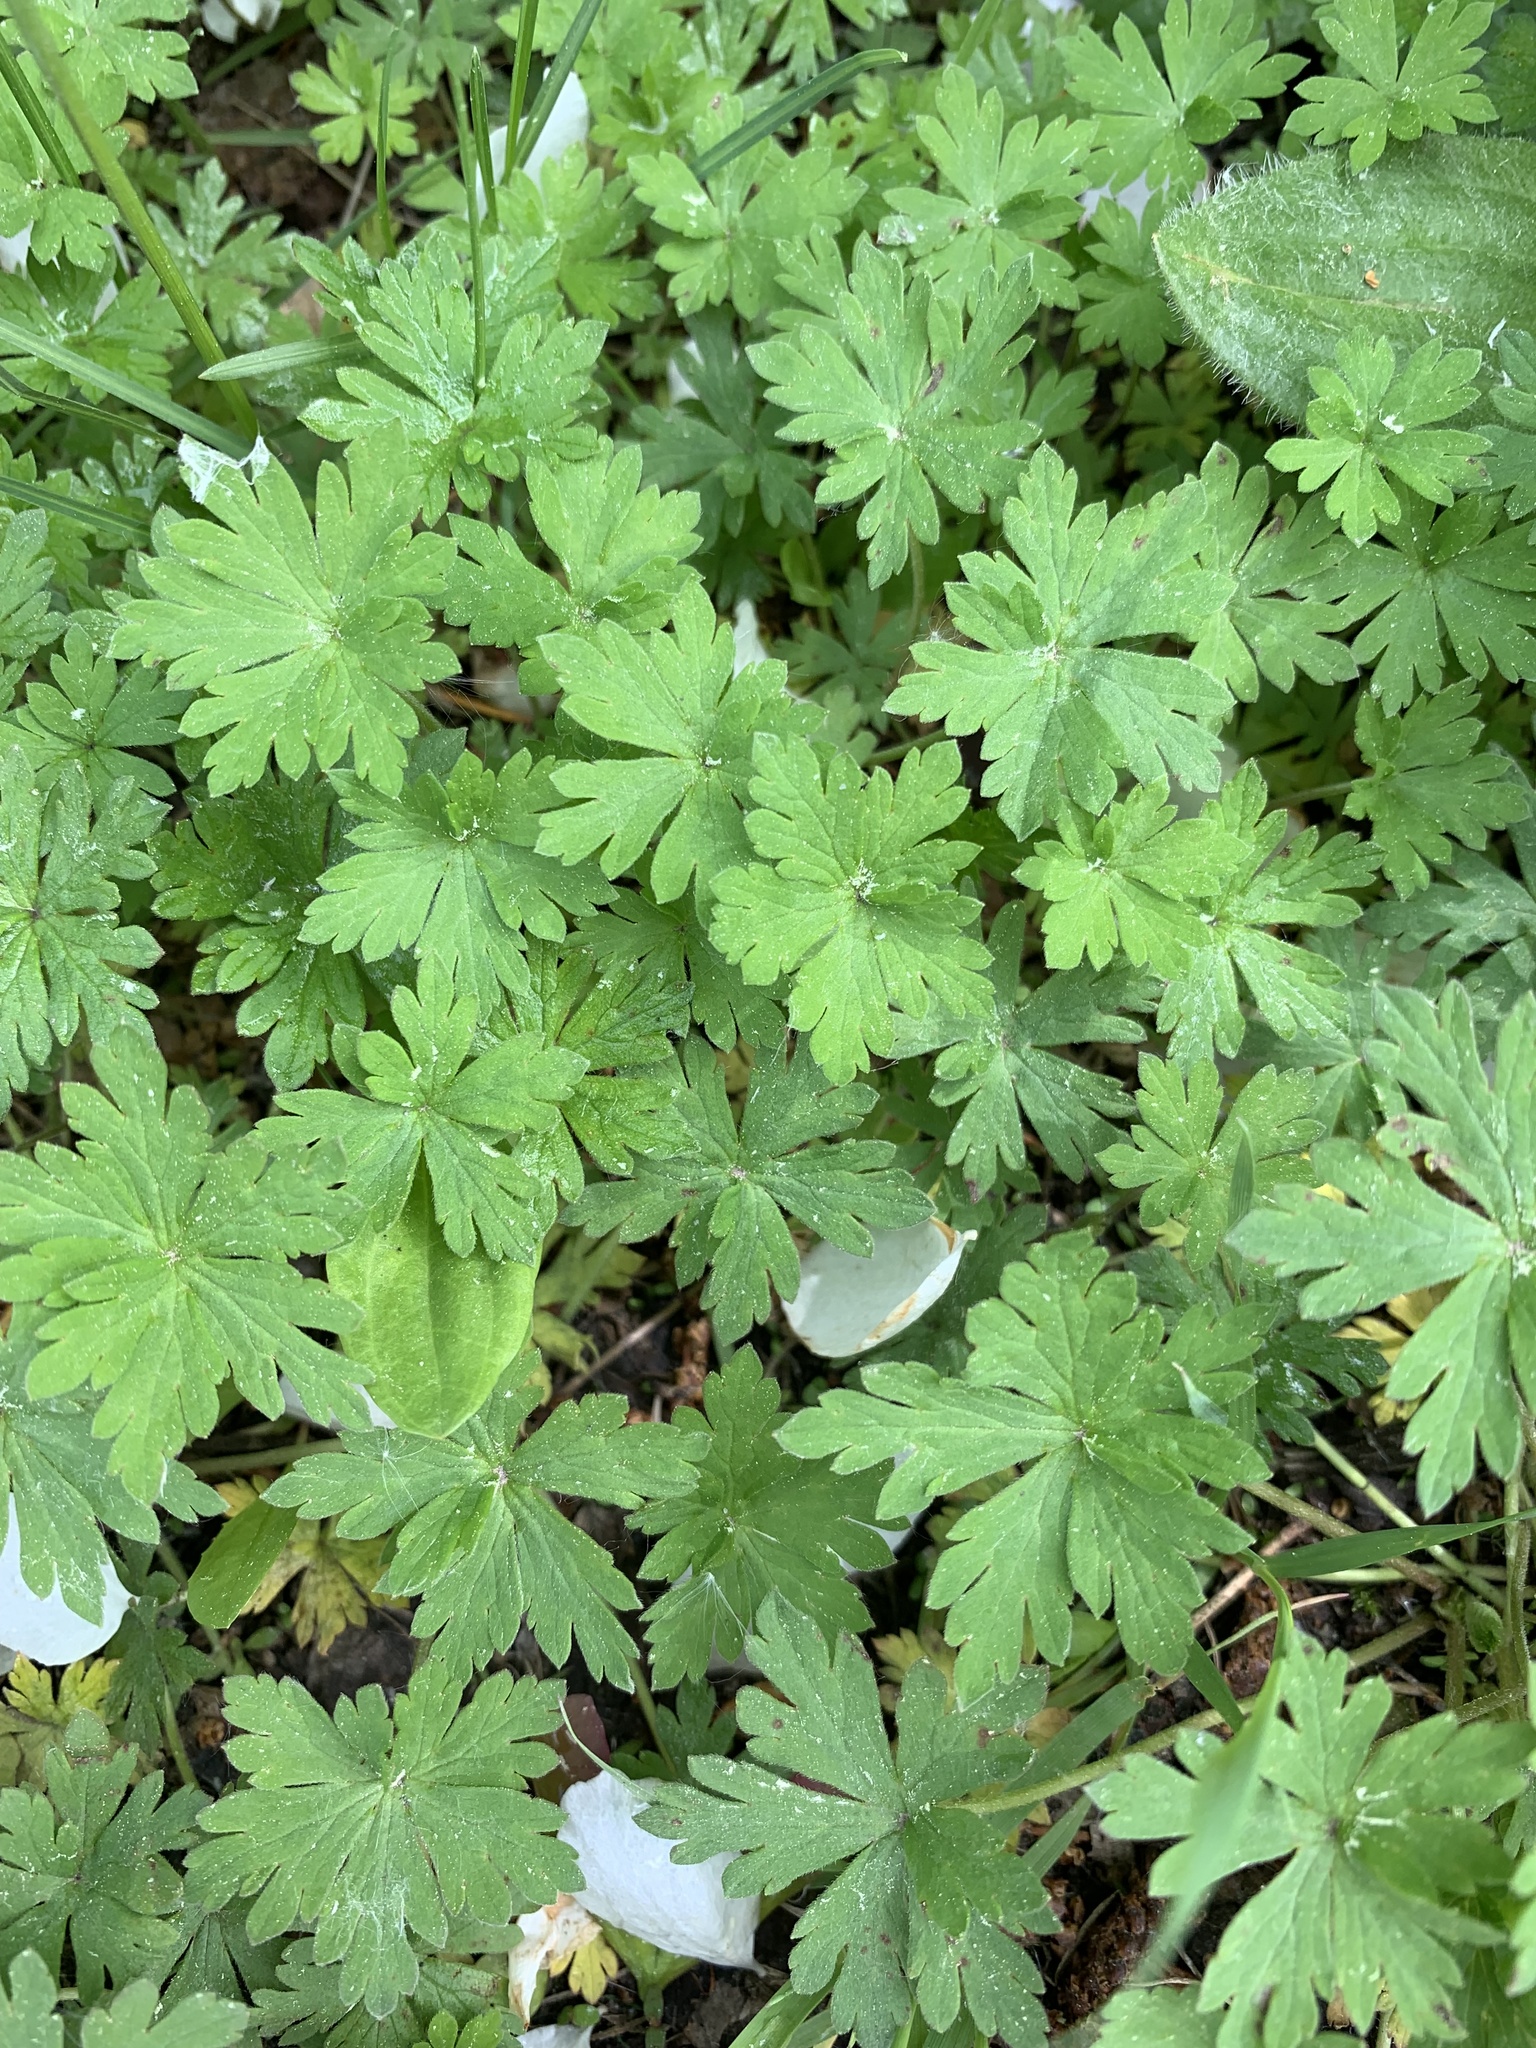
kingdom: Plantae
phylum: Tracheophyta
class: Magnoliopsida
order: Geraniales
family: Geraniaceae
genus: Geranium
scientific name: Geranium sibiricum
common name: Siberian crane's-bill
